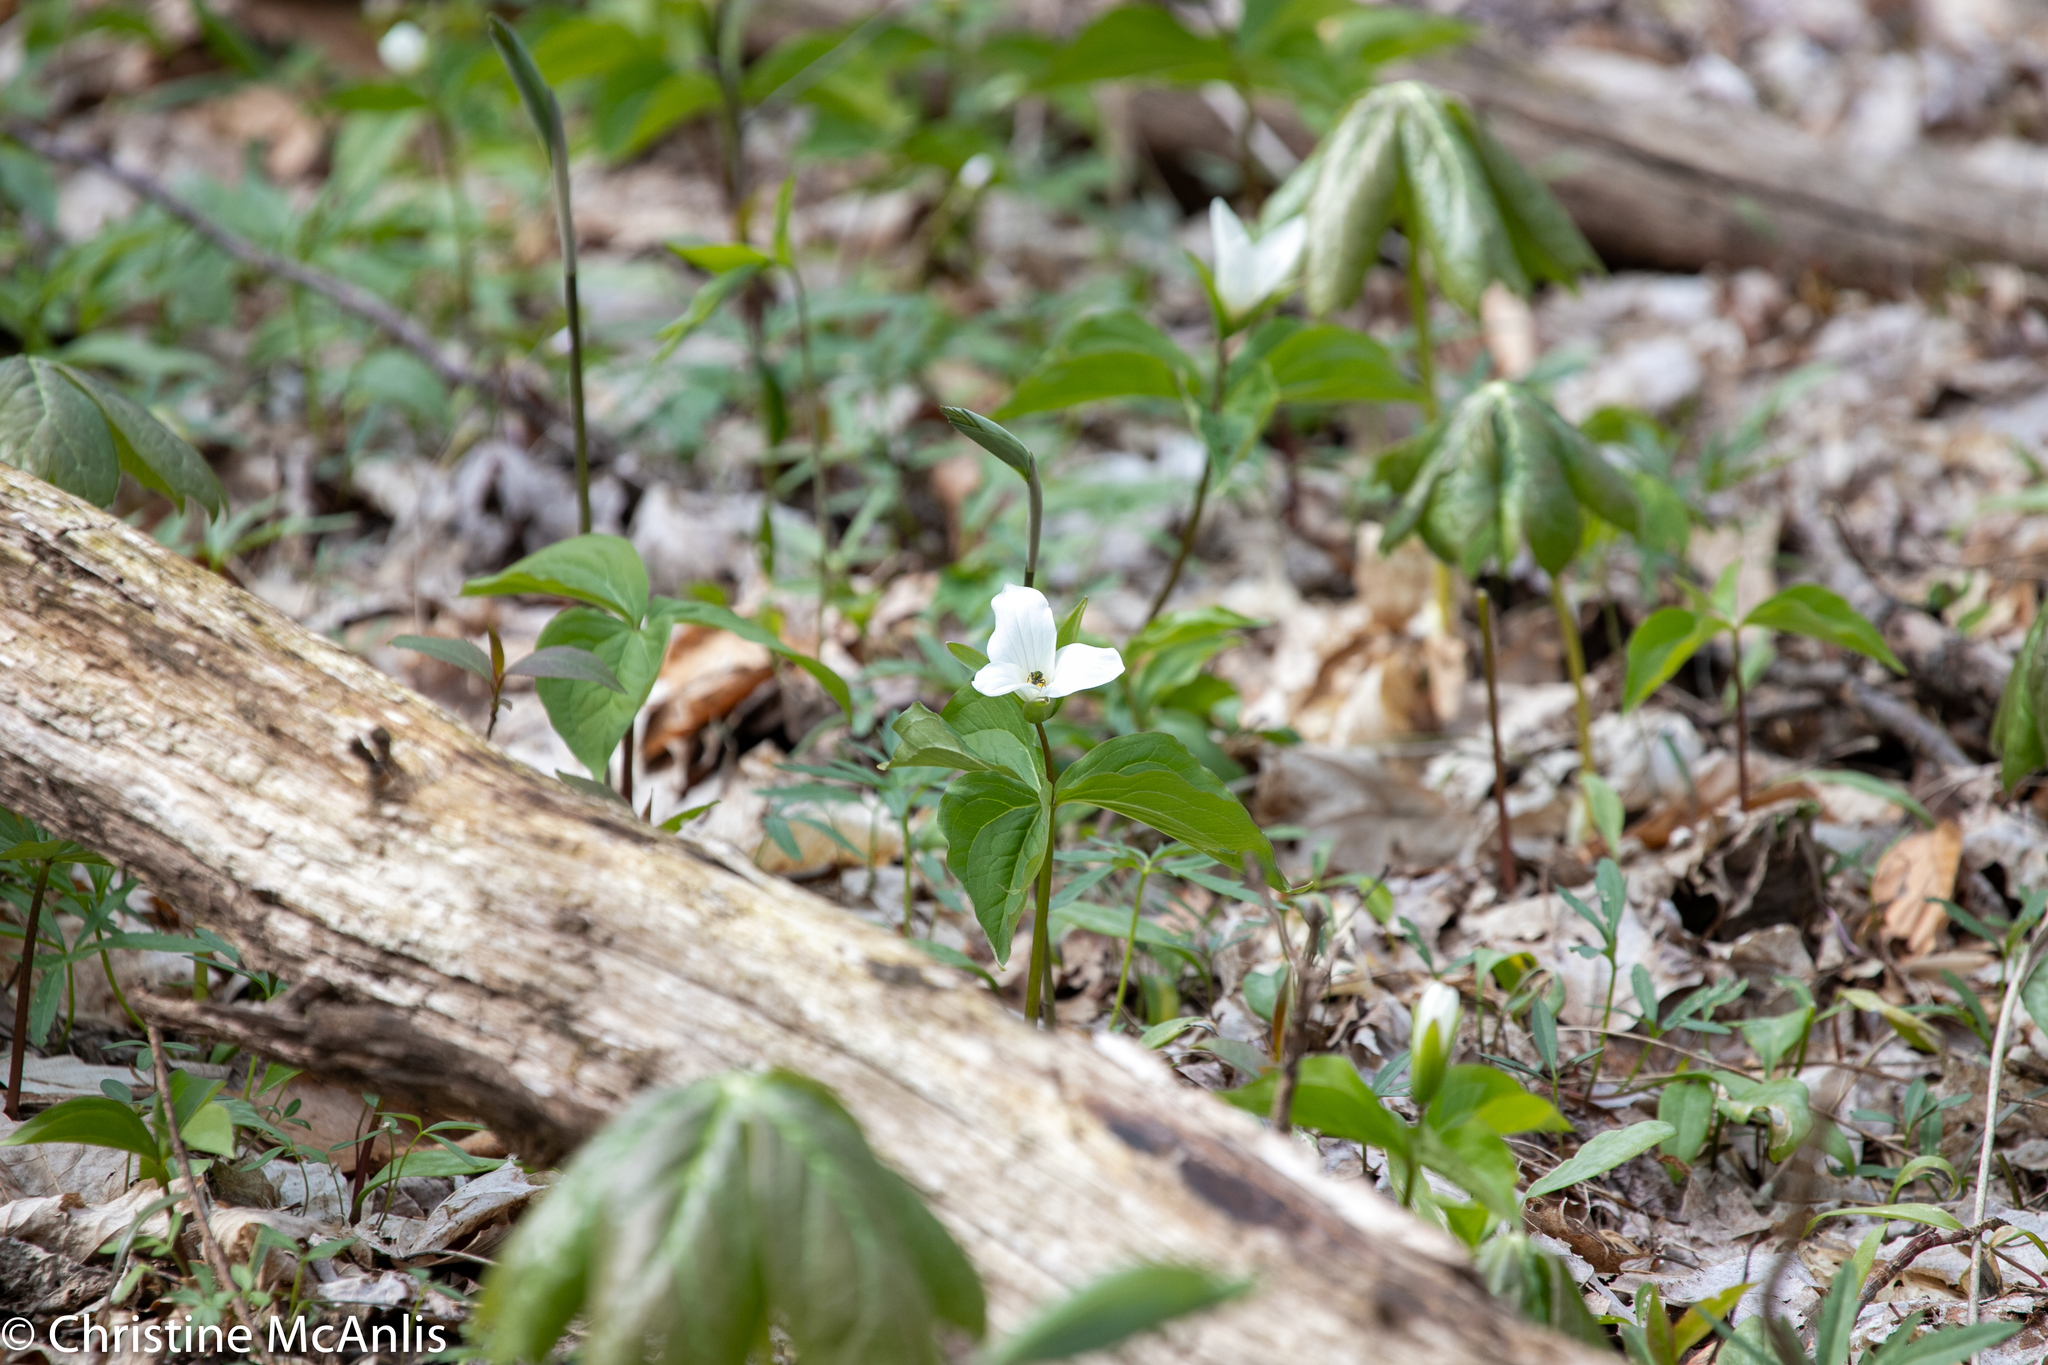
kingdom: Plantae
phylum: Tracheophyta
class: Liliopsida
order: Liliales
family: Melanthiaceae
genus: Trillium
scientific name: Trillium grandiflorum
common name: Great white trillium
